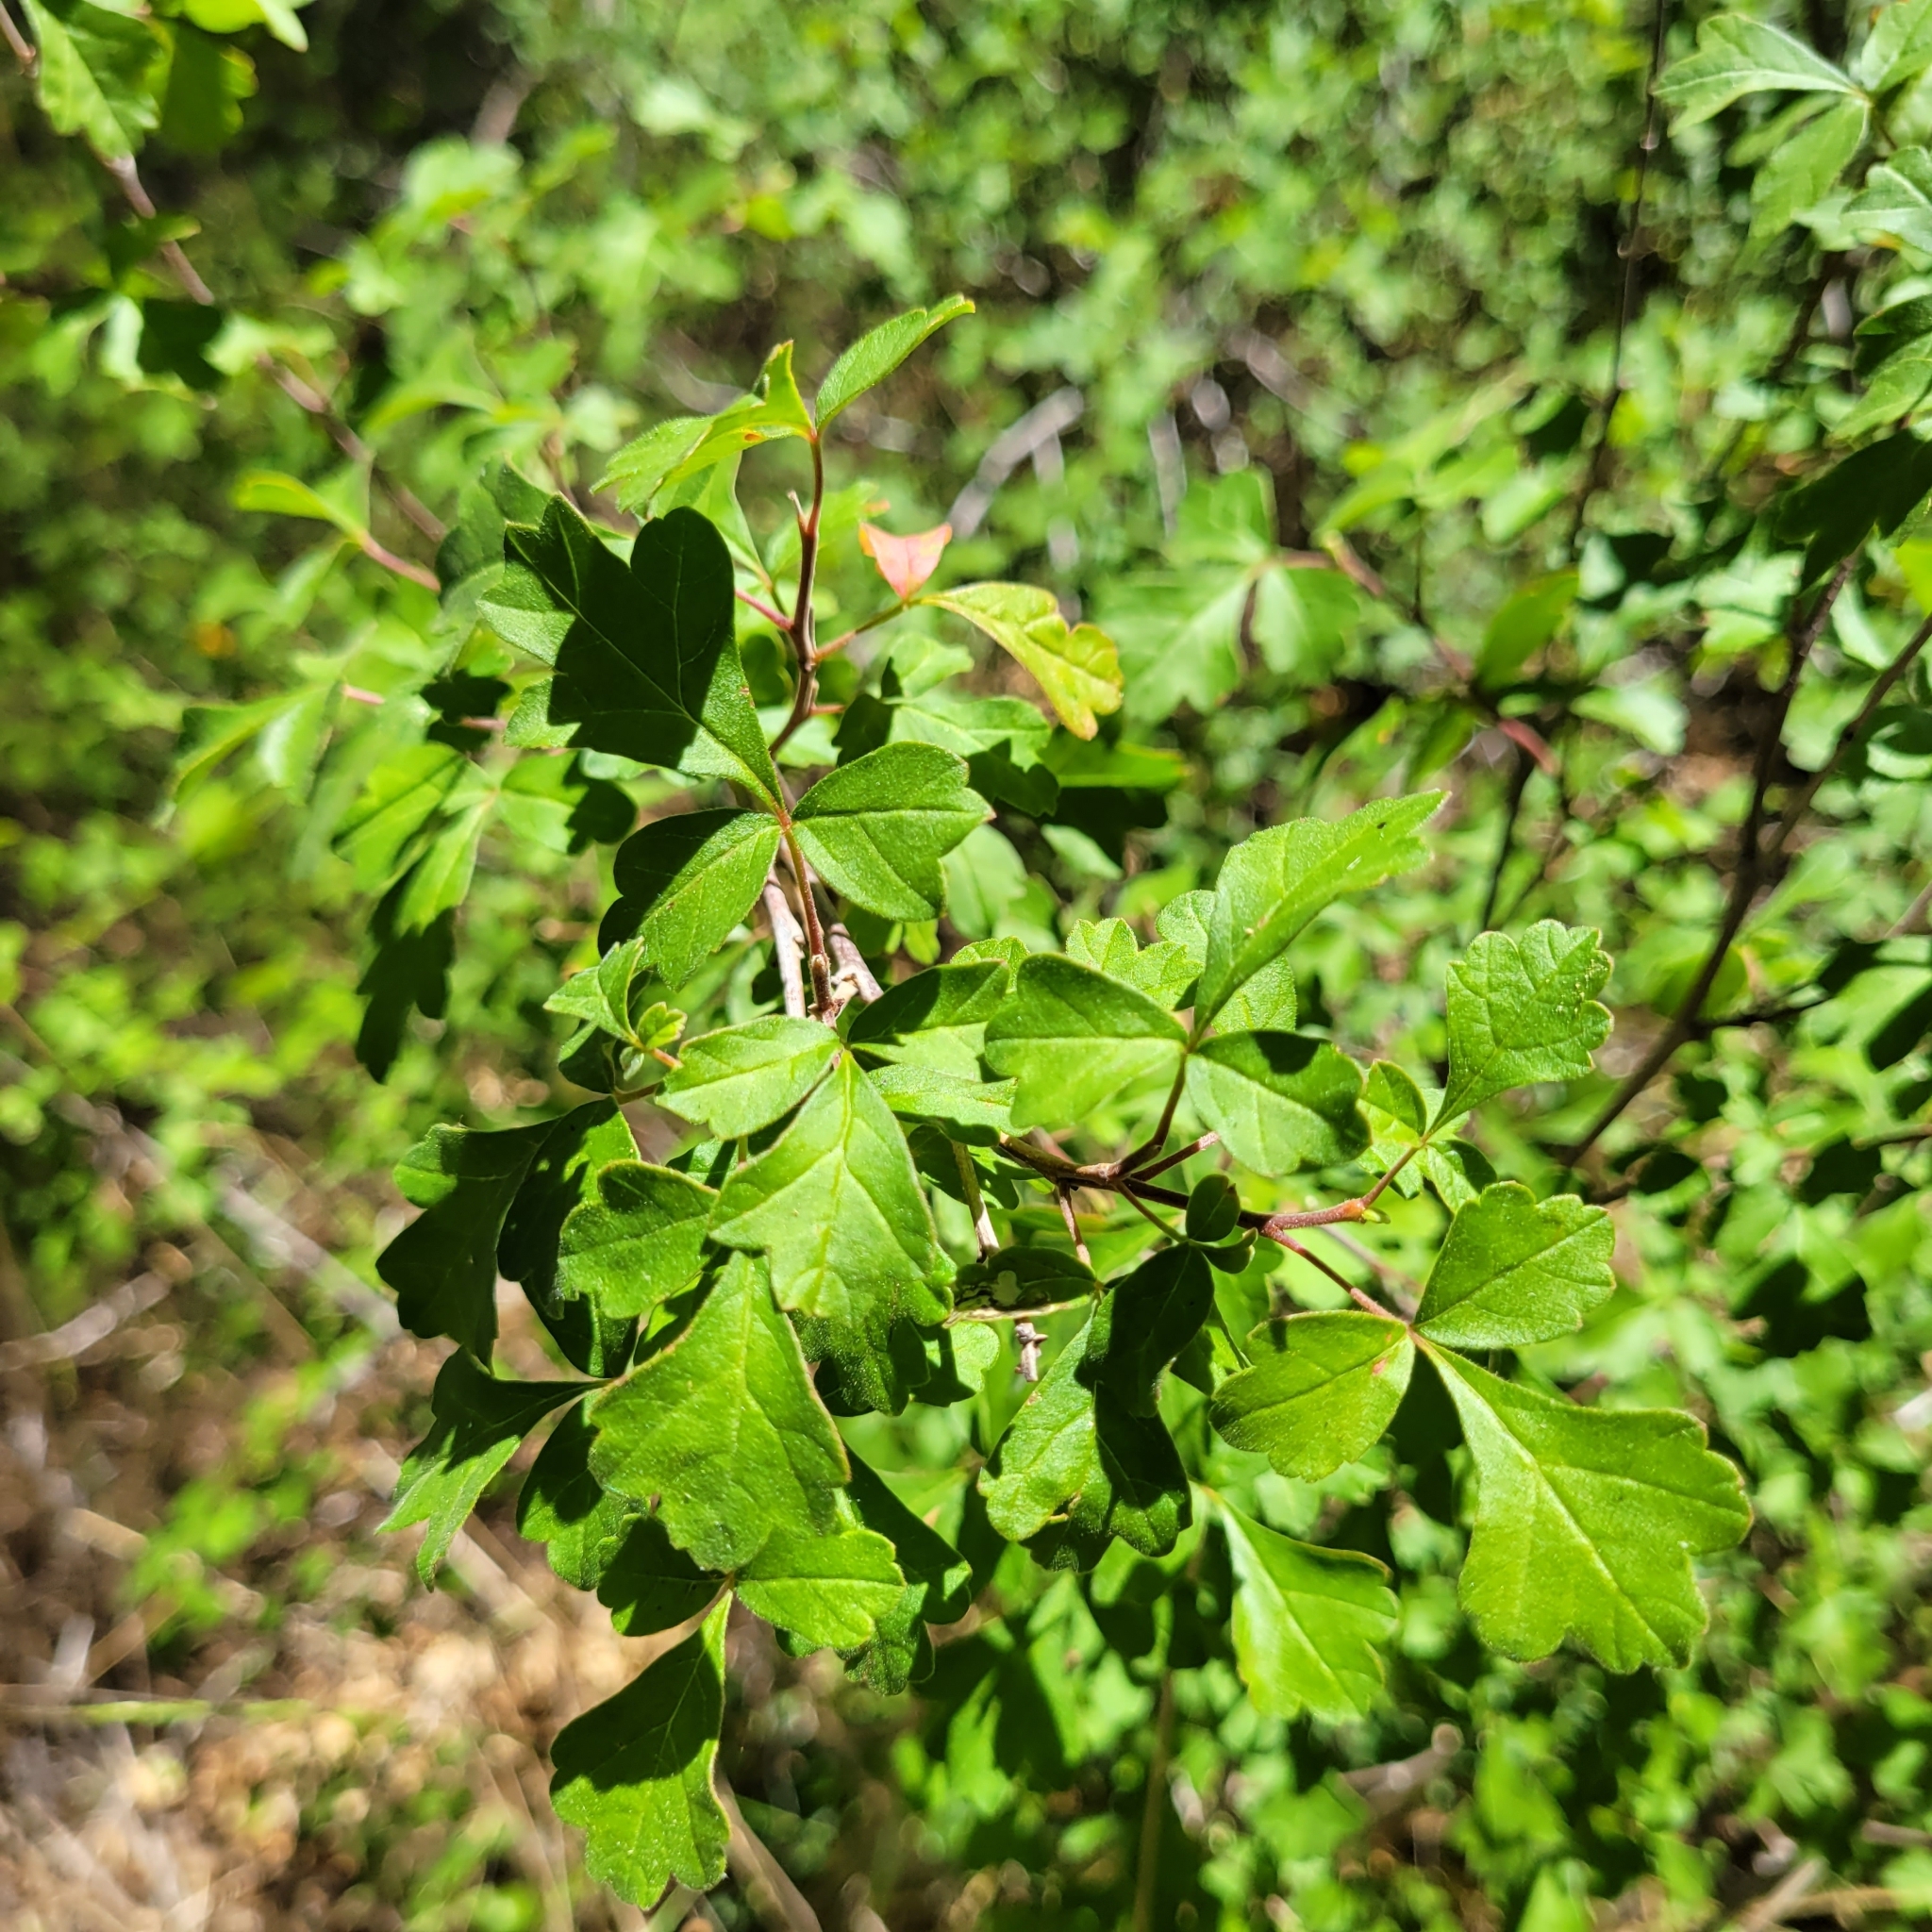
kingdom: Plantae
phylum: Tracheophyta
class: Magnoliopsida
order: Sapindales
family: Anacardiaceae
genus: Rhus
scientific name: Rhus aromatica
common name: Aromatic sumac
